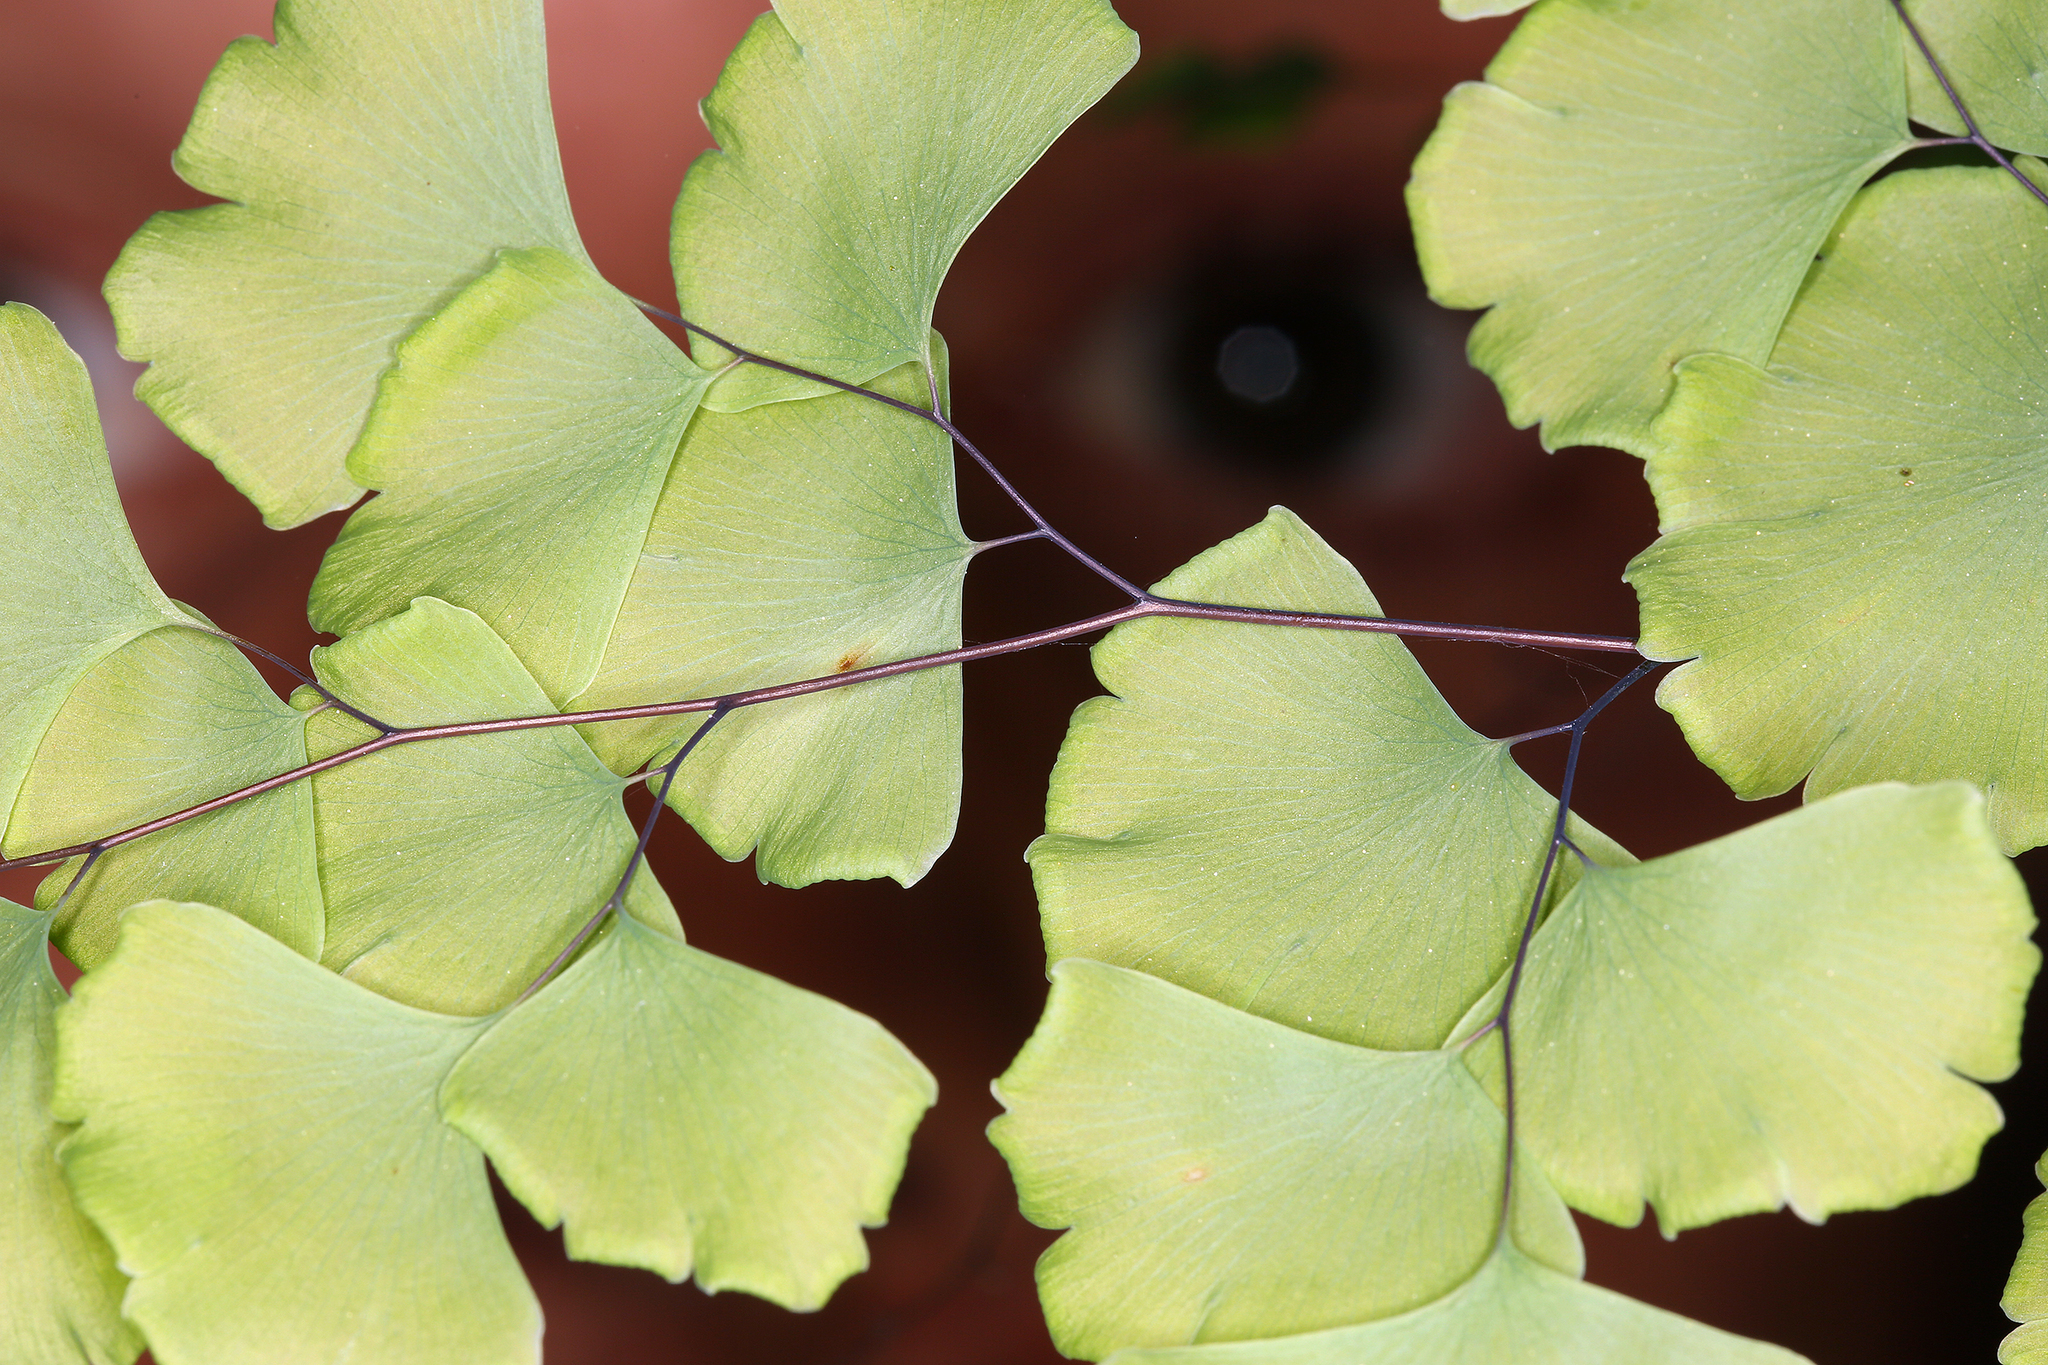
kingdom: Plantae
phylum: Tracheophyta
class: Polypodiopsida
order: Polypodiales
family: Pteridaceae
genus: Adiantum
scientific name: Adiantum shastense
